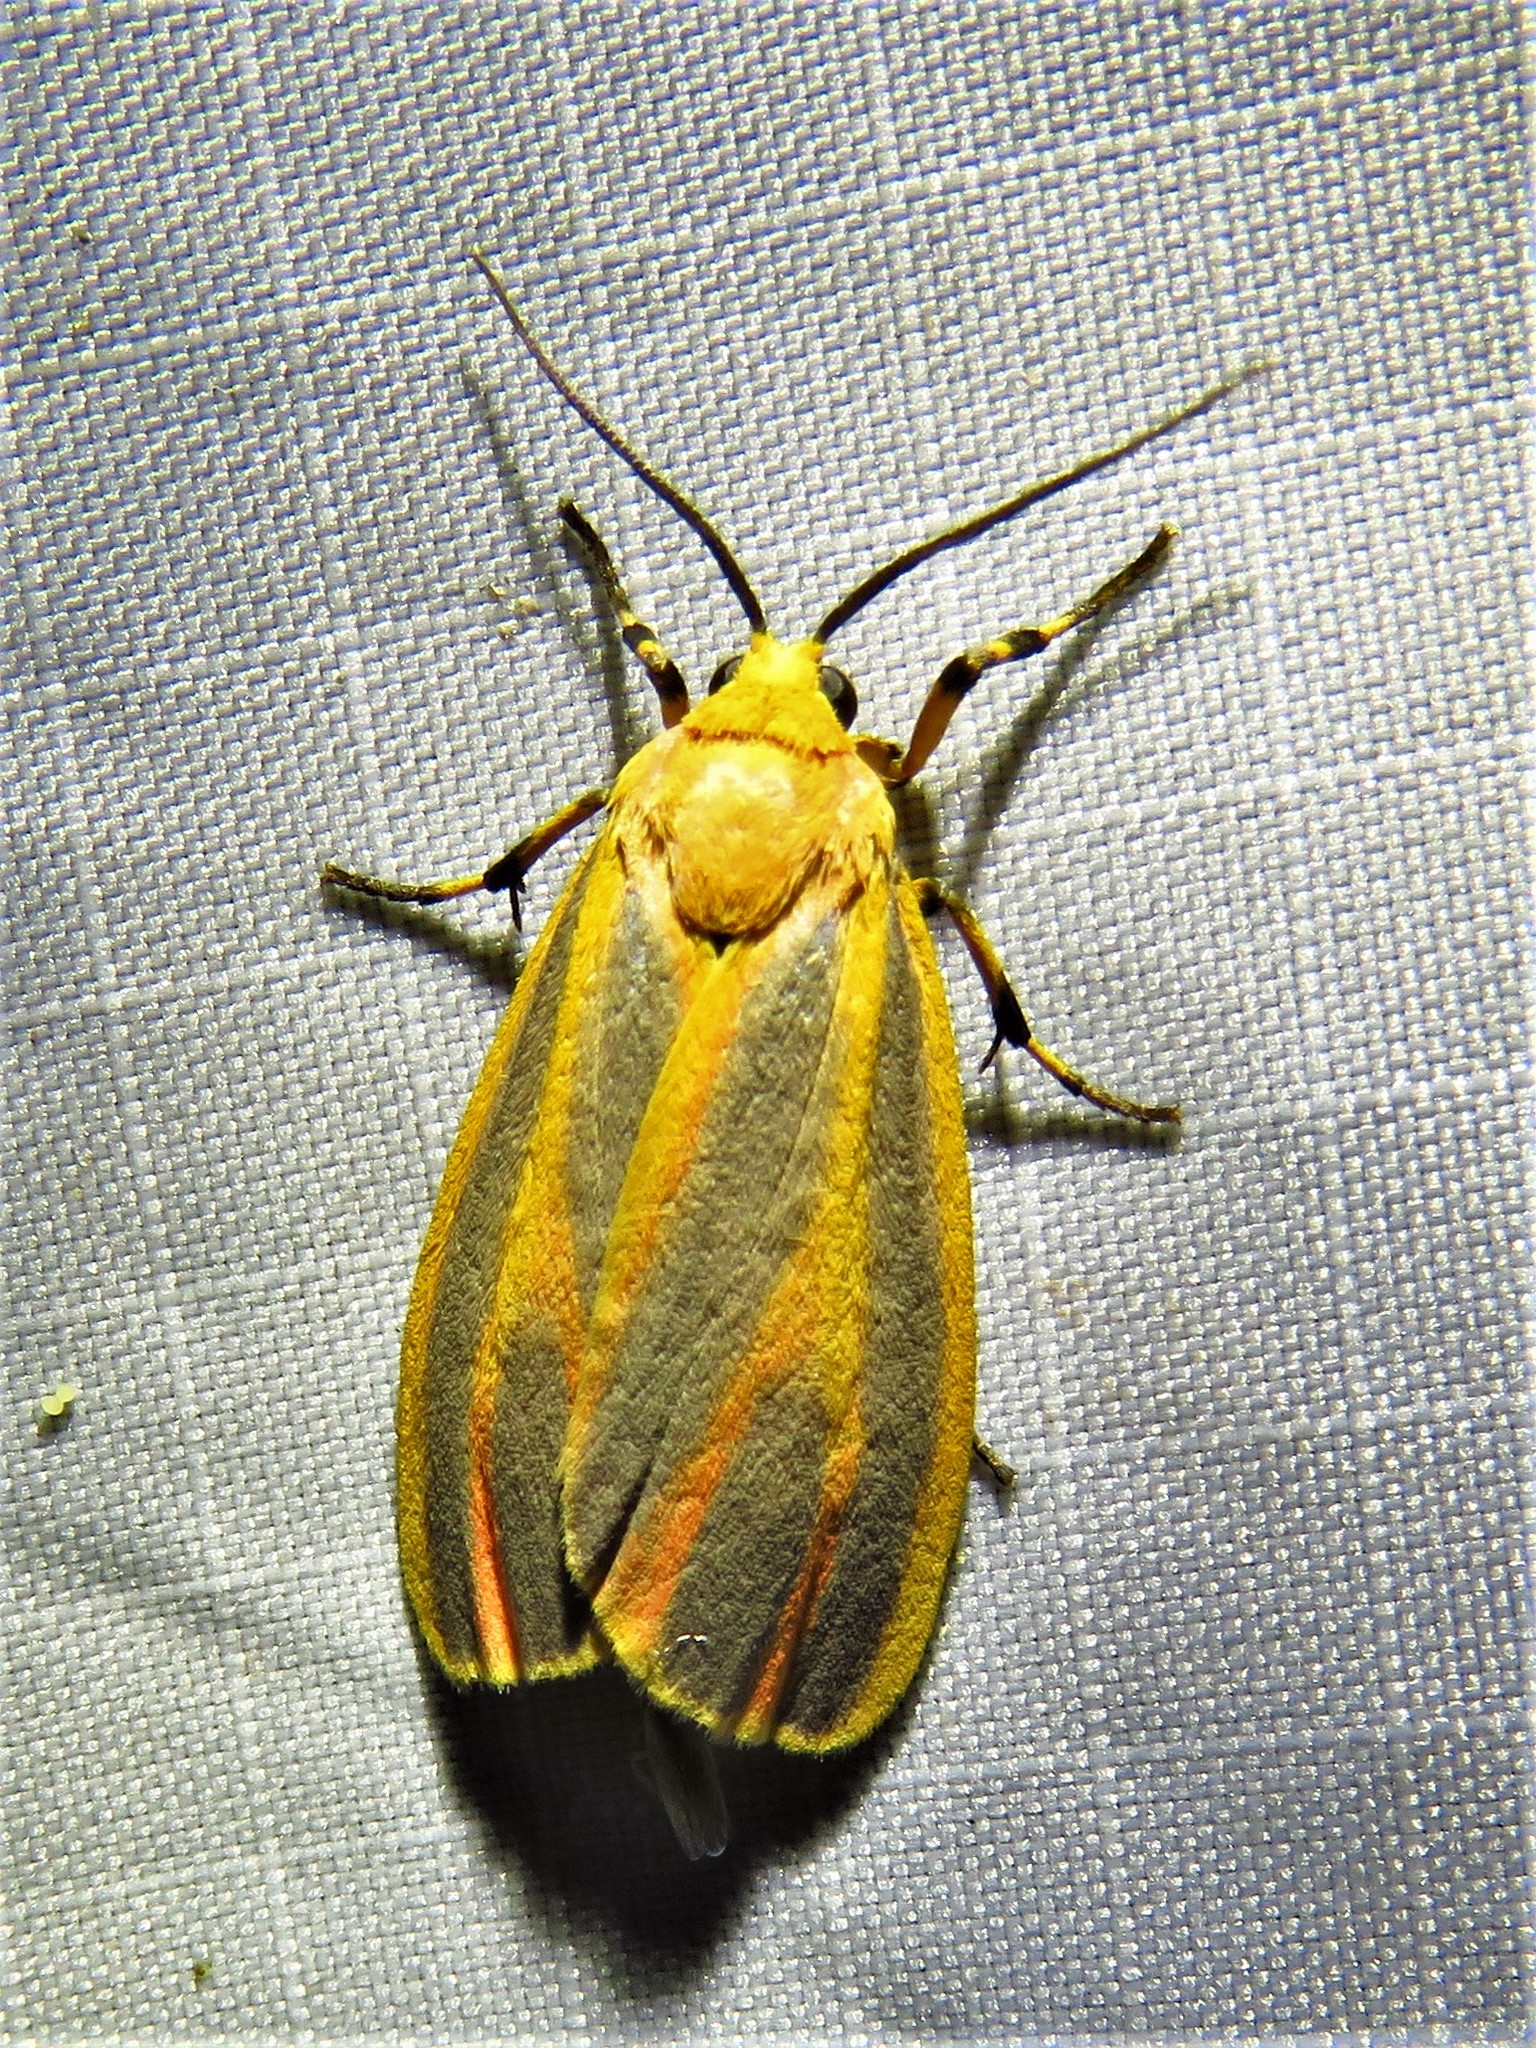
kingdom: Animalia
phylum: Arthropoda
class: Insecta
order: Lepidoptera
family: Erebidae
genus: Hypoprepia
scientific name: Hypoprepia fucosa
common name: Painted lichen moth
